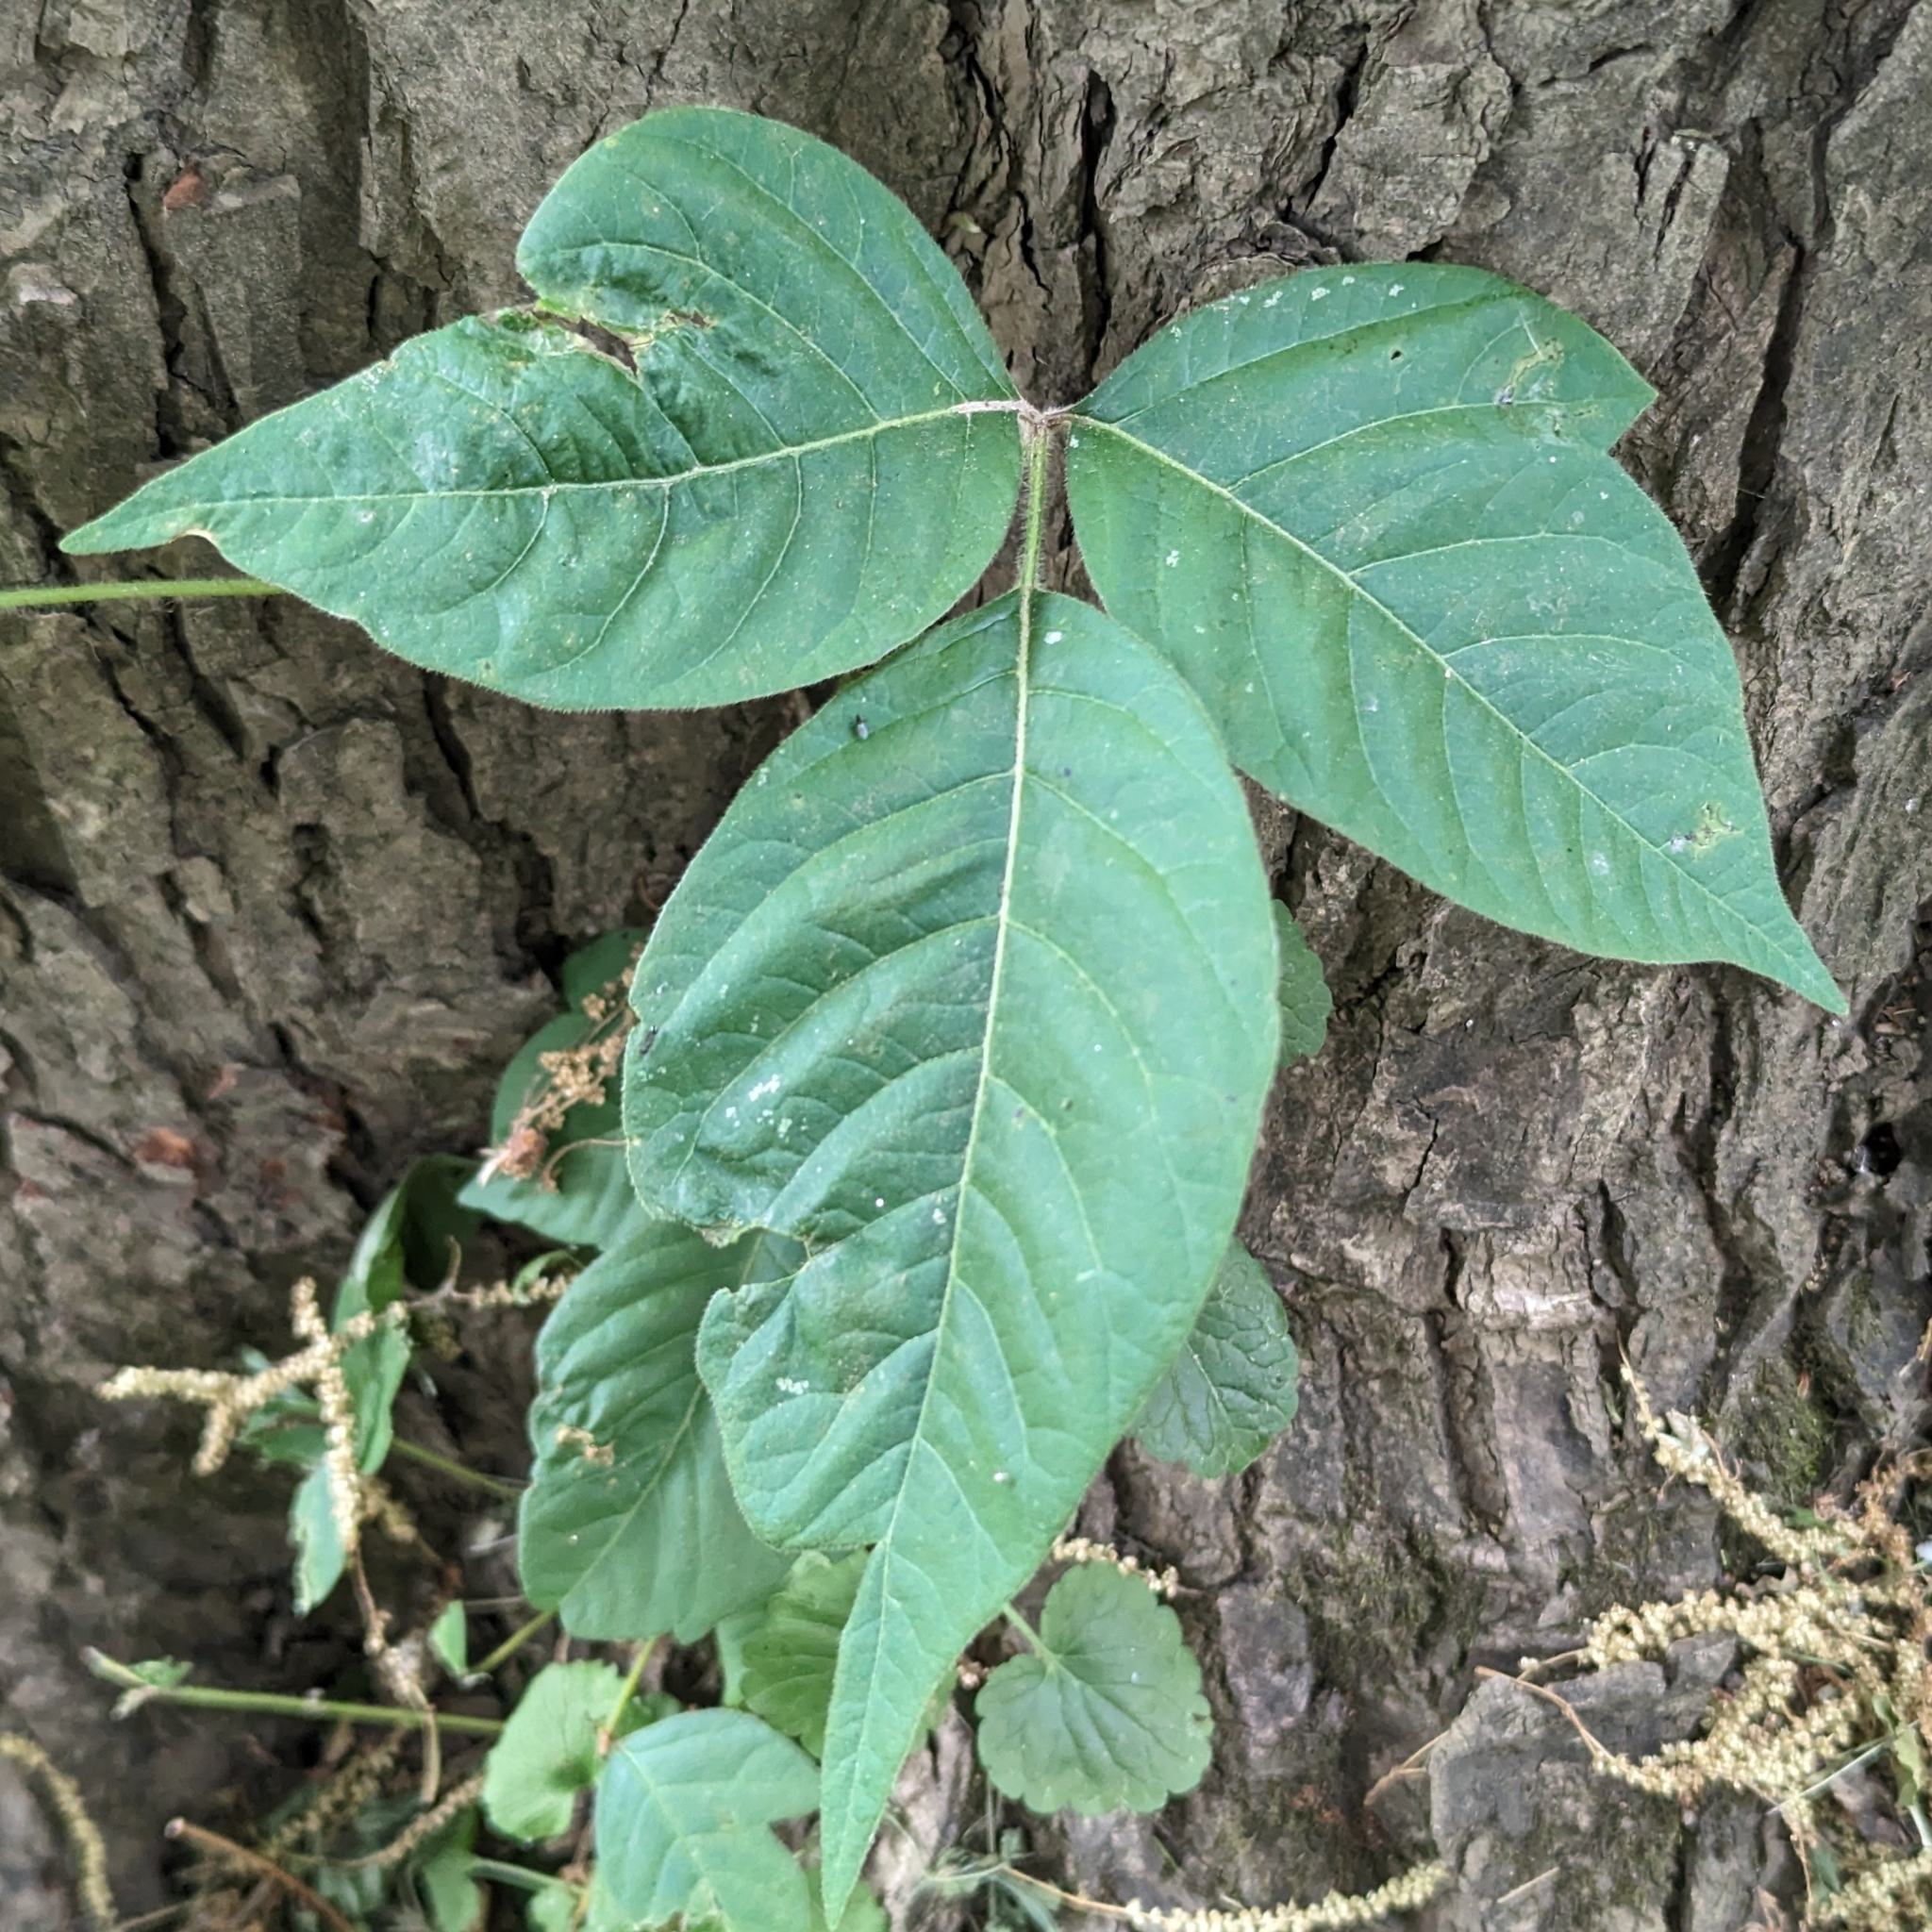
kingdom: Plantae
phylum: Tracheophyta
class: Magnoliopsida
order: Sapindales
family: Anacardiaceae
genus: Toxicodendron
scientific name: Toxicodendron radicans
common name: Poison ivy
